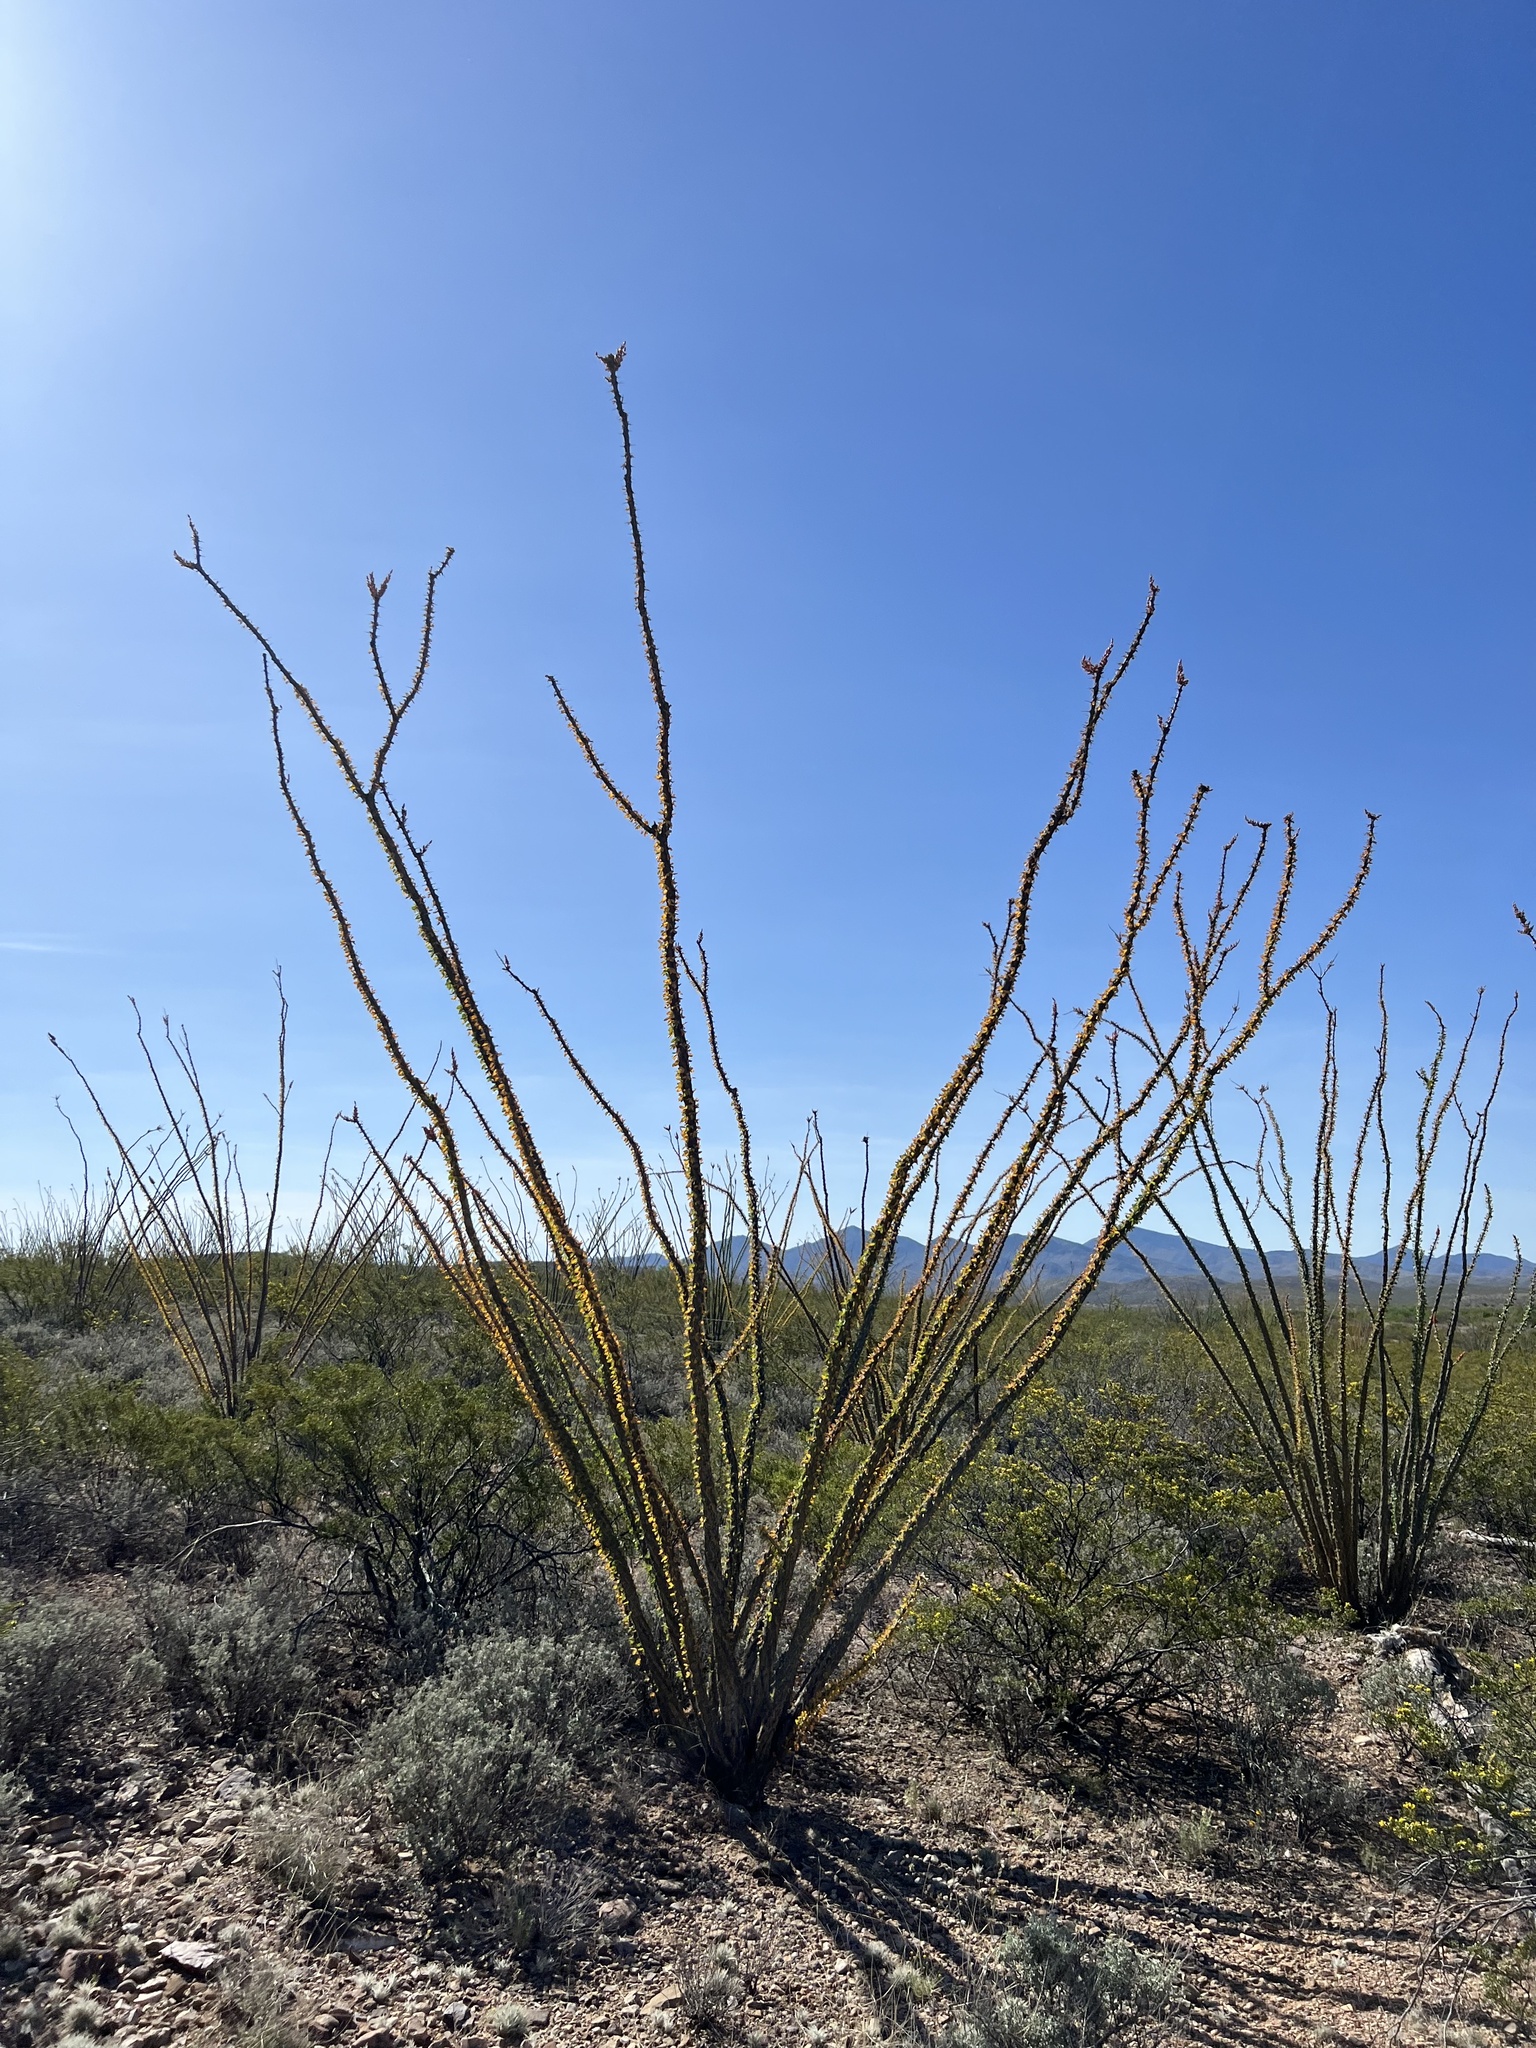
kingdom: Plantae
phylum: Tracheophyta
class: Magnoliopsida
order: Ericales
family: Fouquieriaceae
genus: Fouquieria
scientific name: Fouquieria splendens
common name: Vine-cactus
